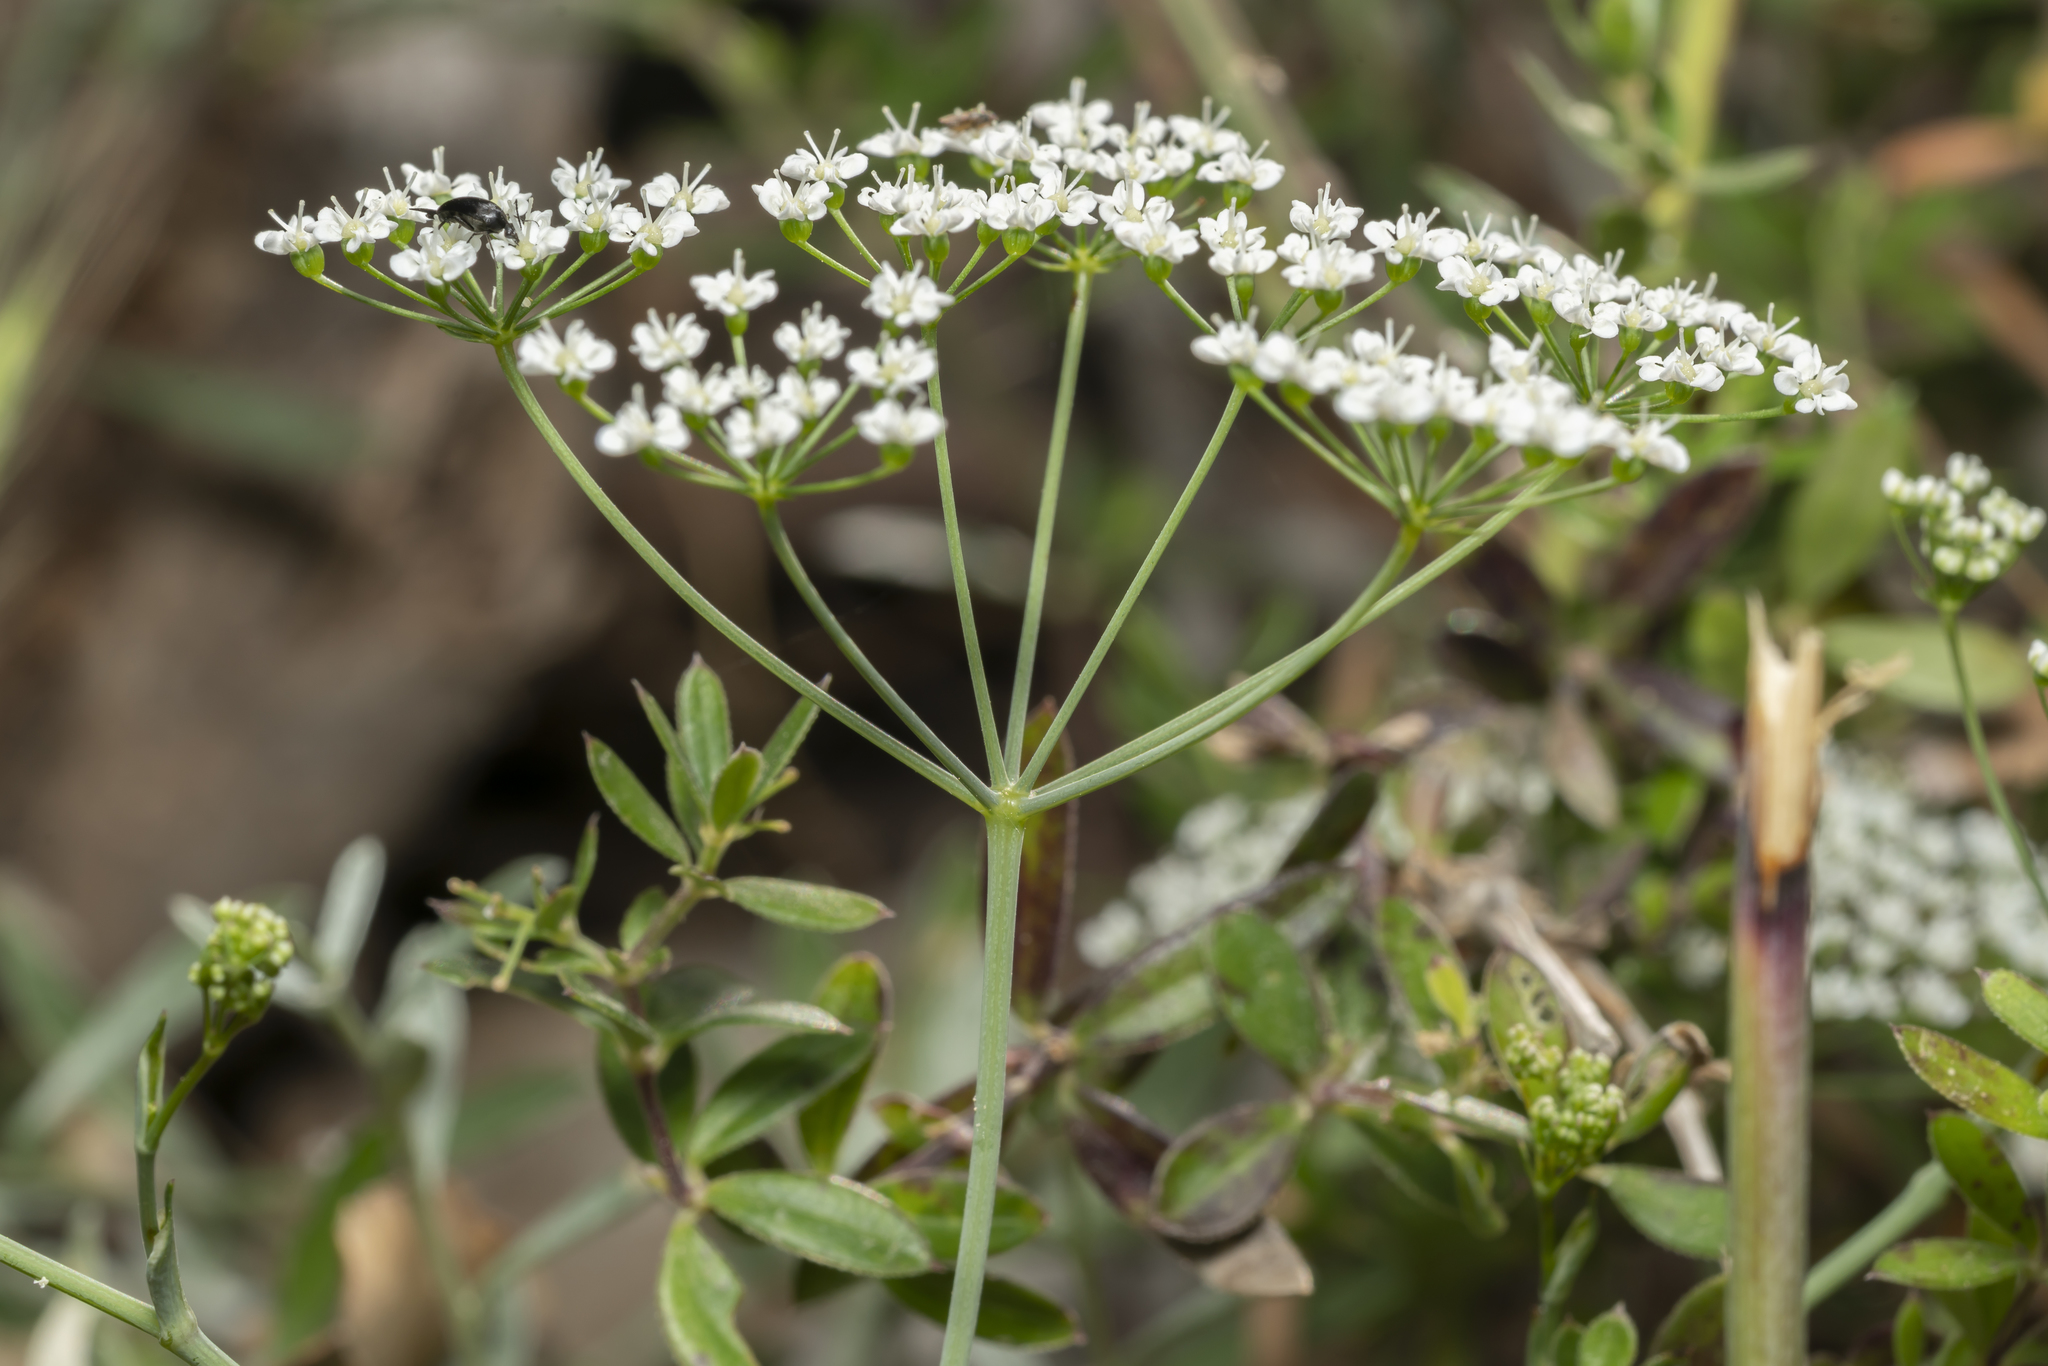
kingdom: Plantae
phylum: Tracheophyta
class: Magnoliopsida
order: Apiales
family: Apiaceae
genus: Scaligeria
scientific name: Scaligeria napiformis
